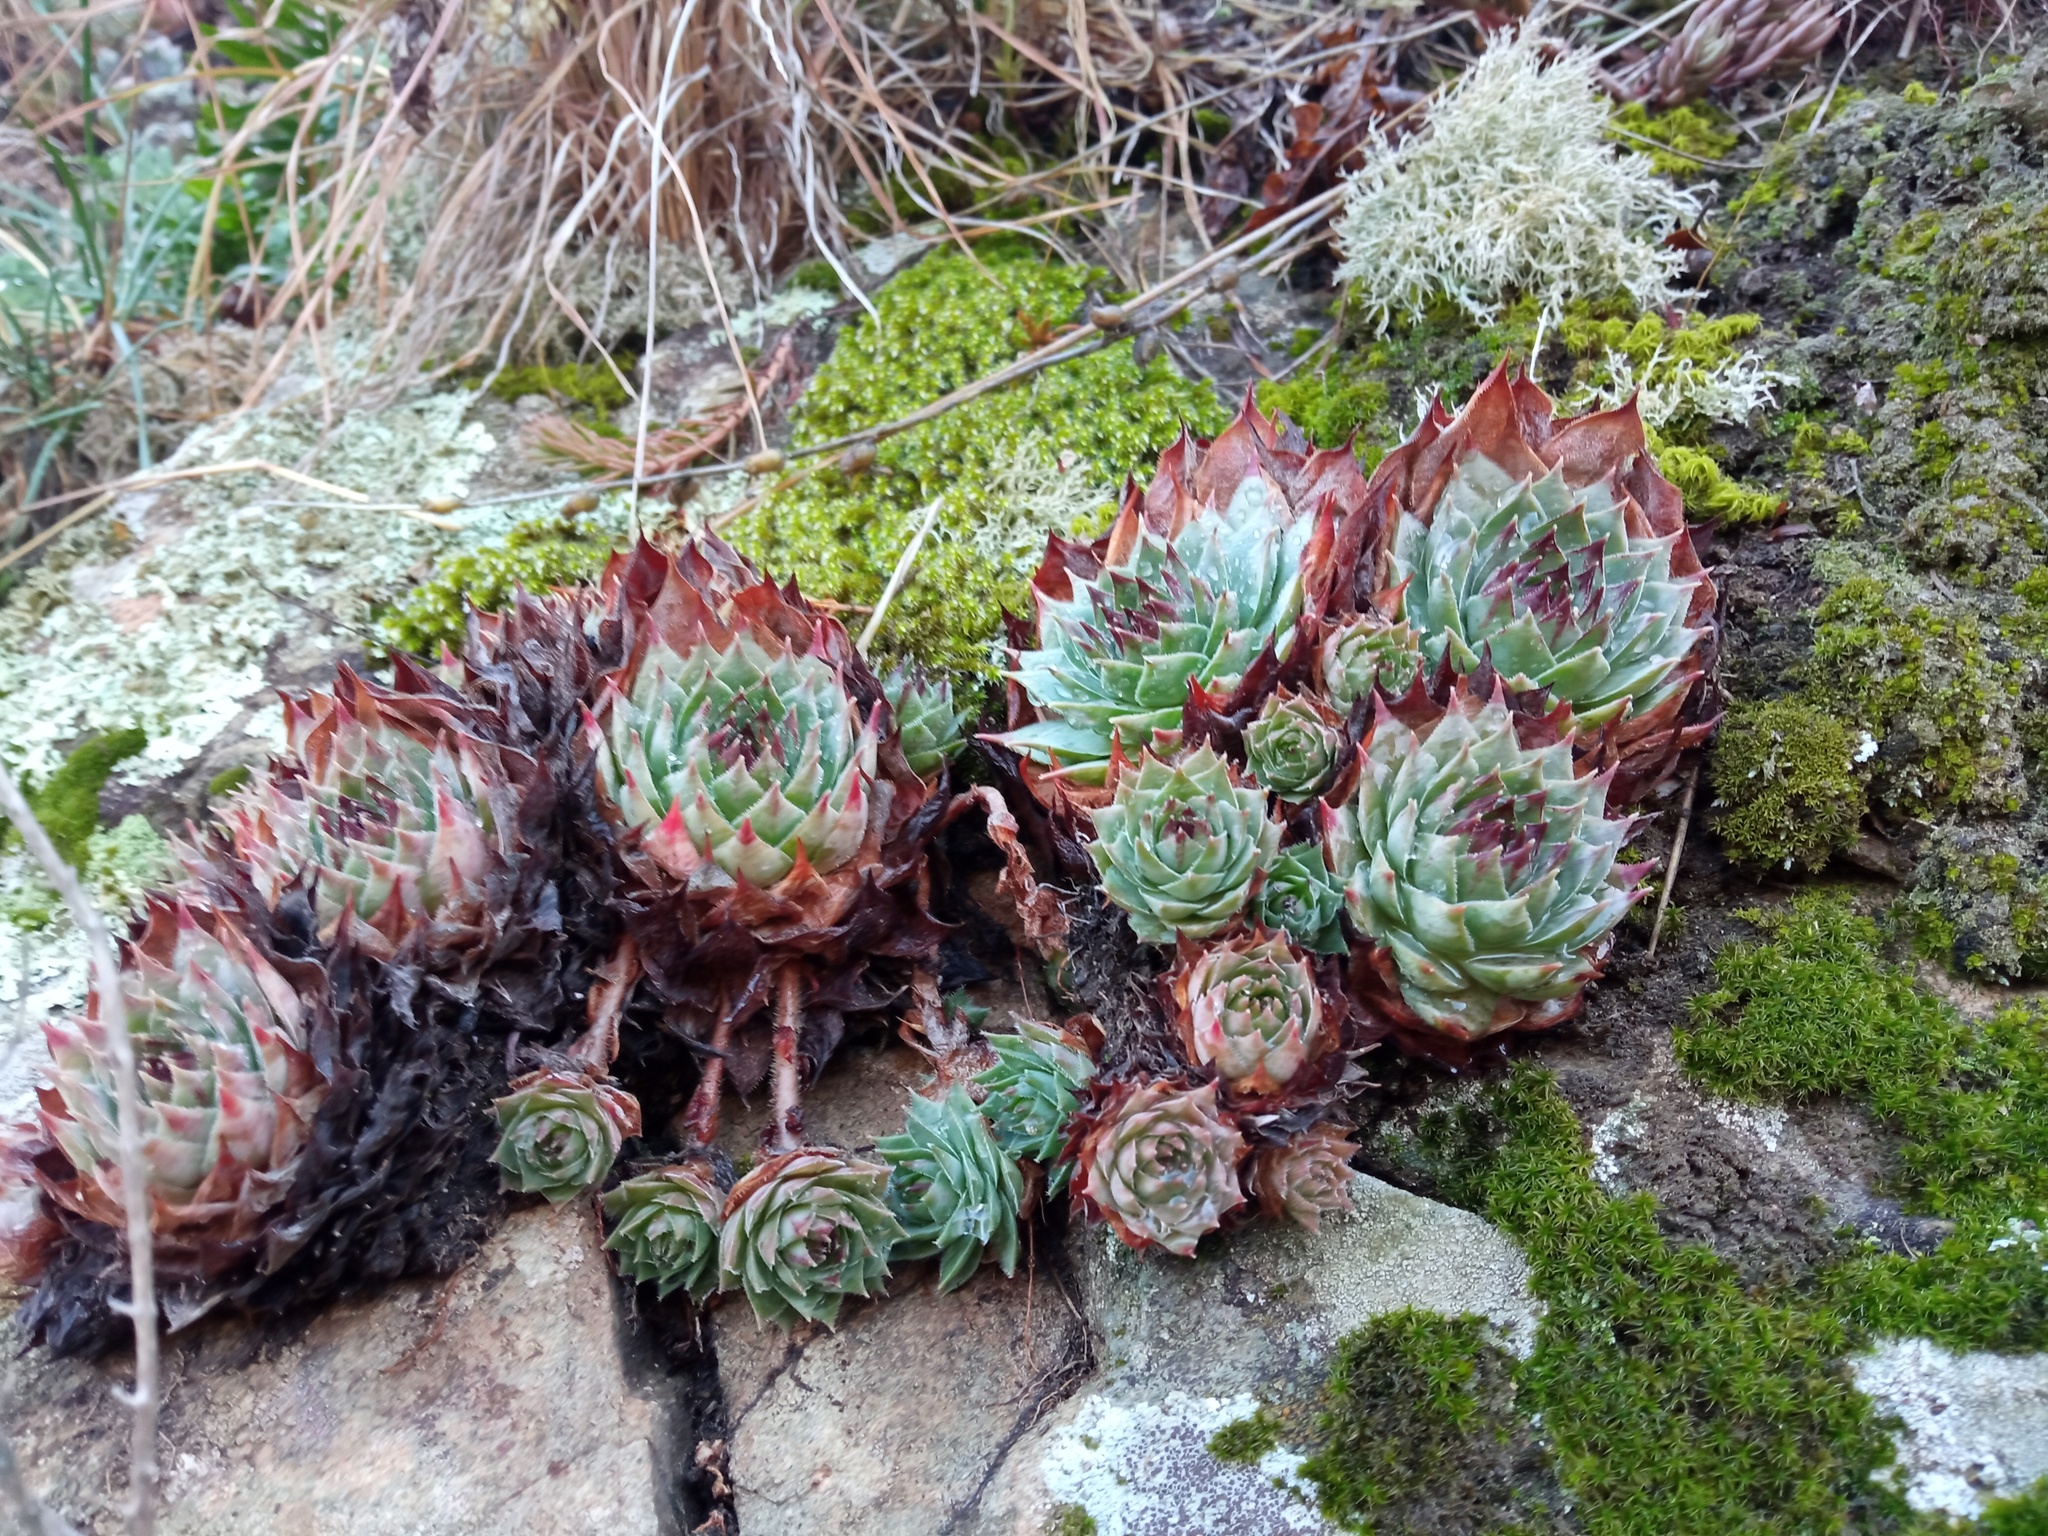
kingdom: Plantae
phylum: Tracheophyta
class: Magnoliopsida
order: Saxifragales
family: Crassulaceae
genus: Sempervivum
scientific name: Sempervivum tectorum
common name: House-leek
